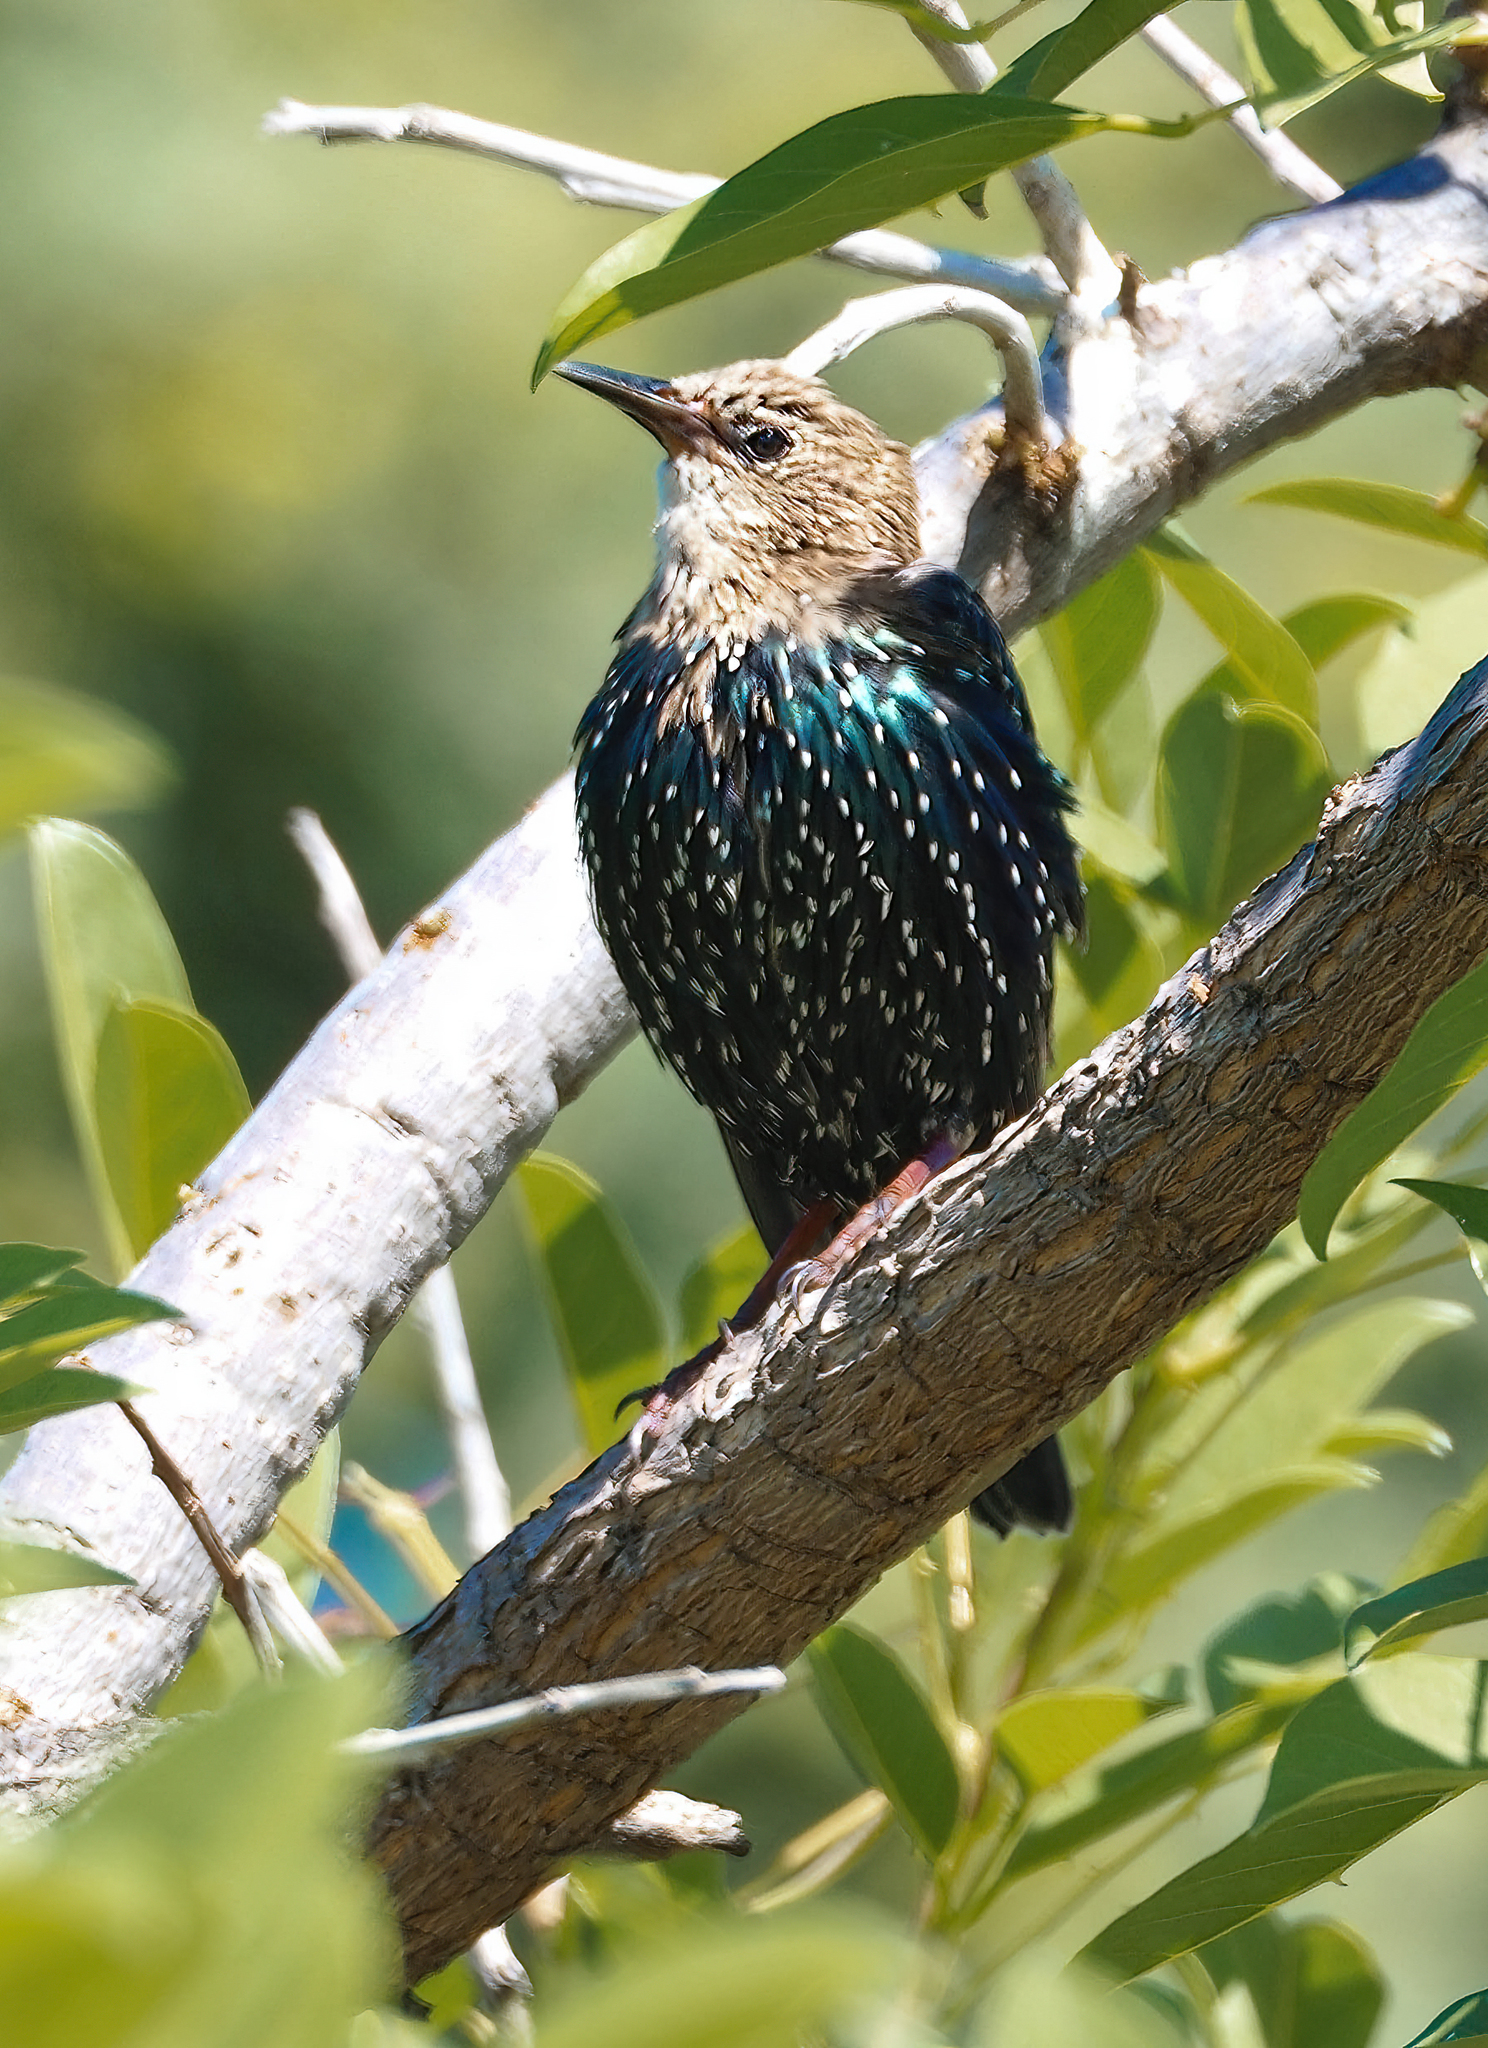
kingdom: Animalia
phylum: Chordata
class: Aves
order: Passeriformes
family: Sturnidae
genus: Sturnus
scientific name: Sturnus vulgaris
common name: Common starling
